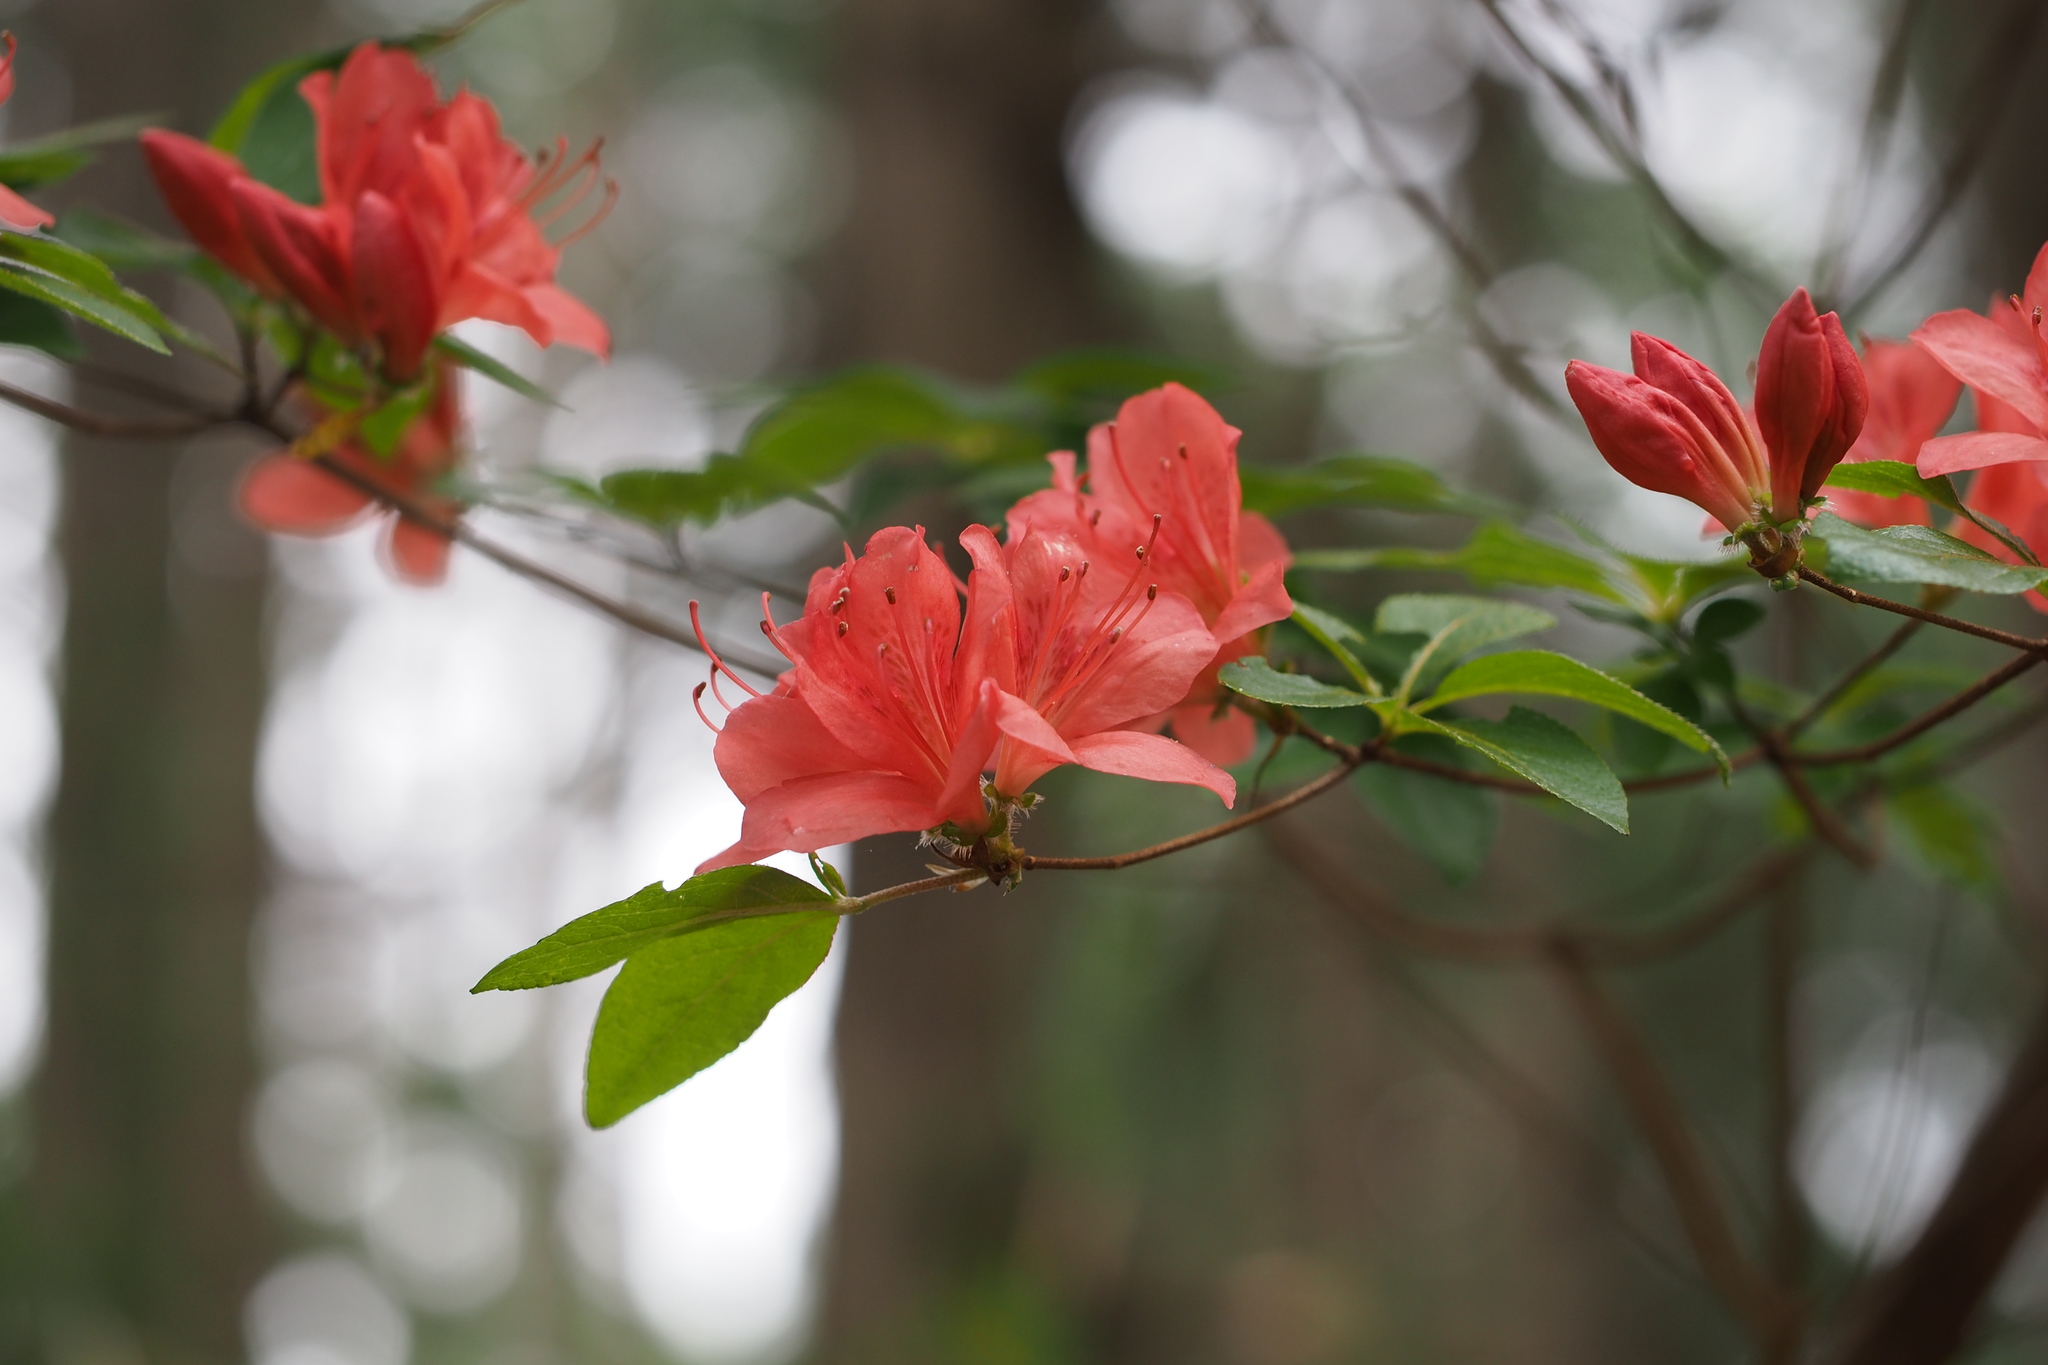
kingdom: Plantae
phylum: Tracheophyta
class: Magnoliopsida
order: Ericales
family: Ericaceae
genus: Rhododendron
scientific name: Rhododendron kaempferi
